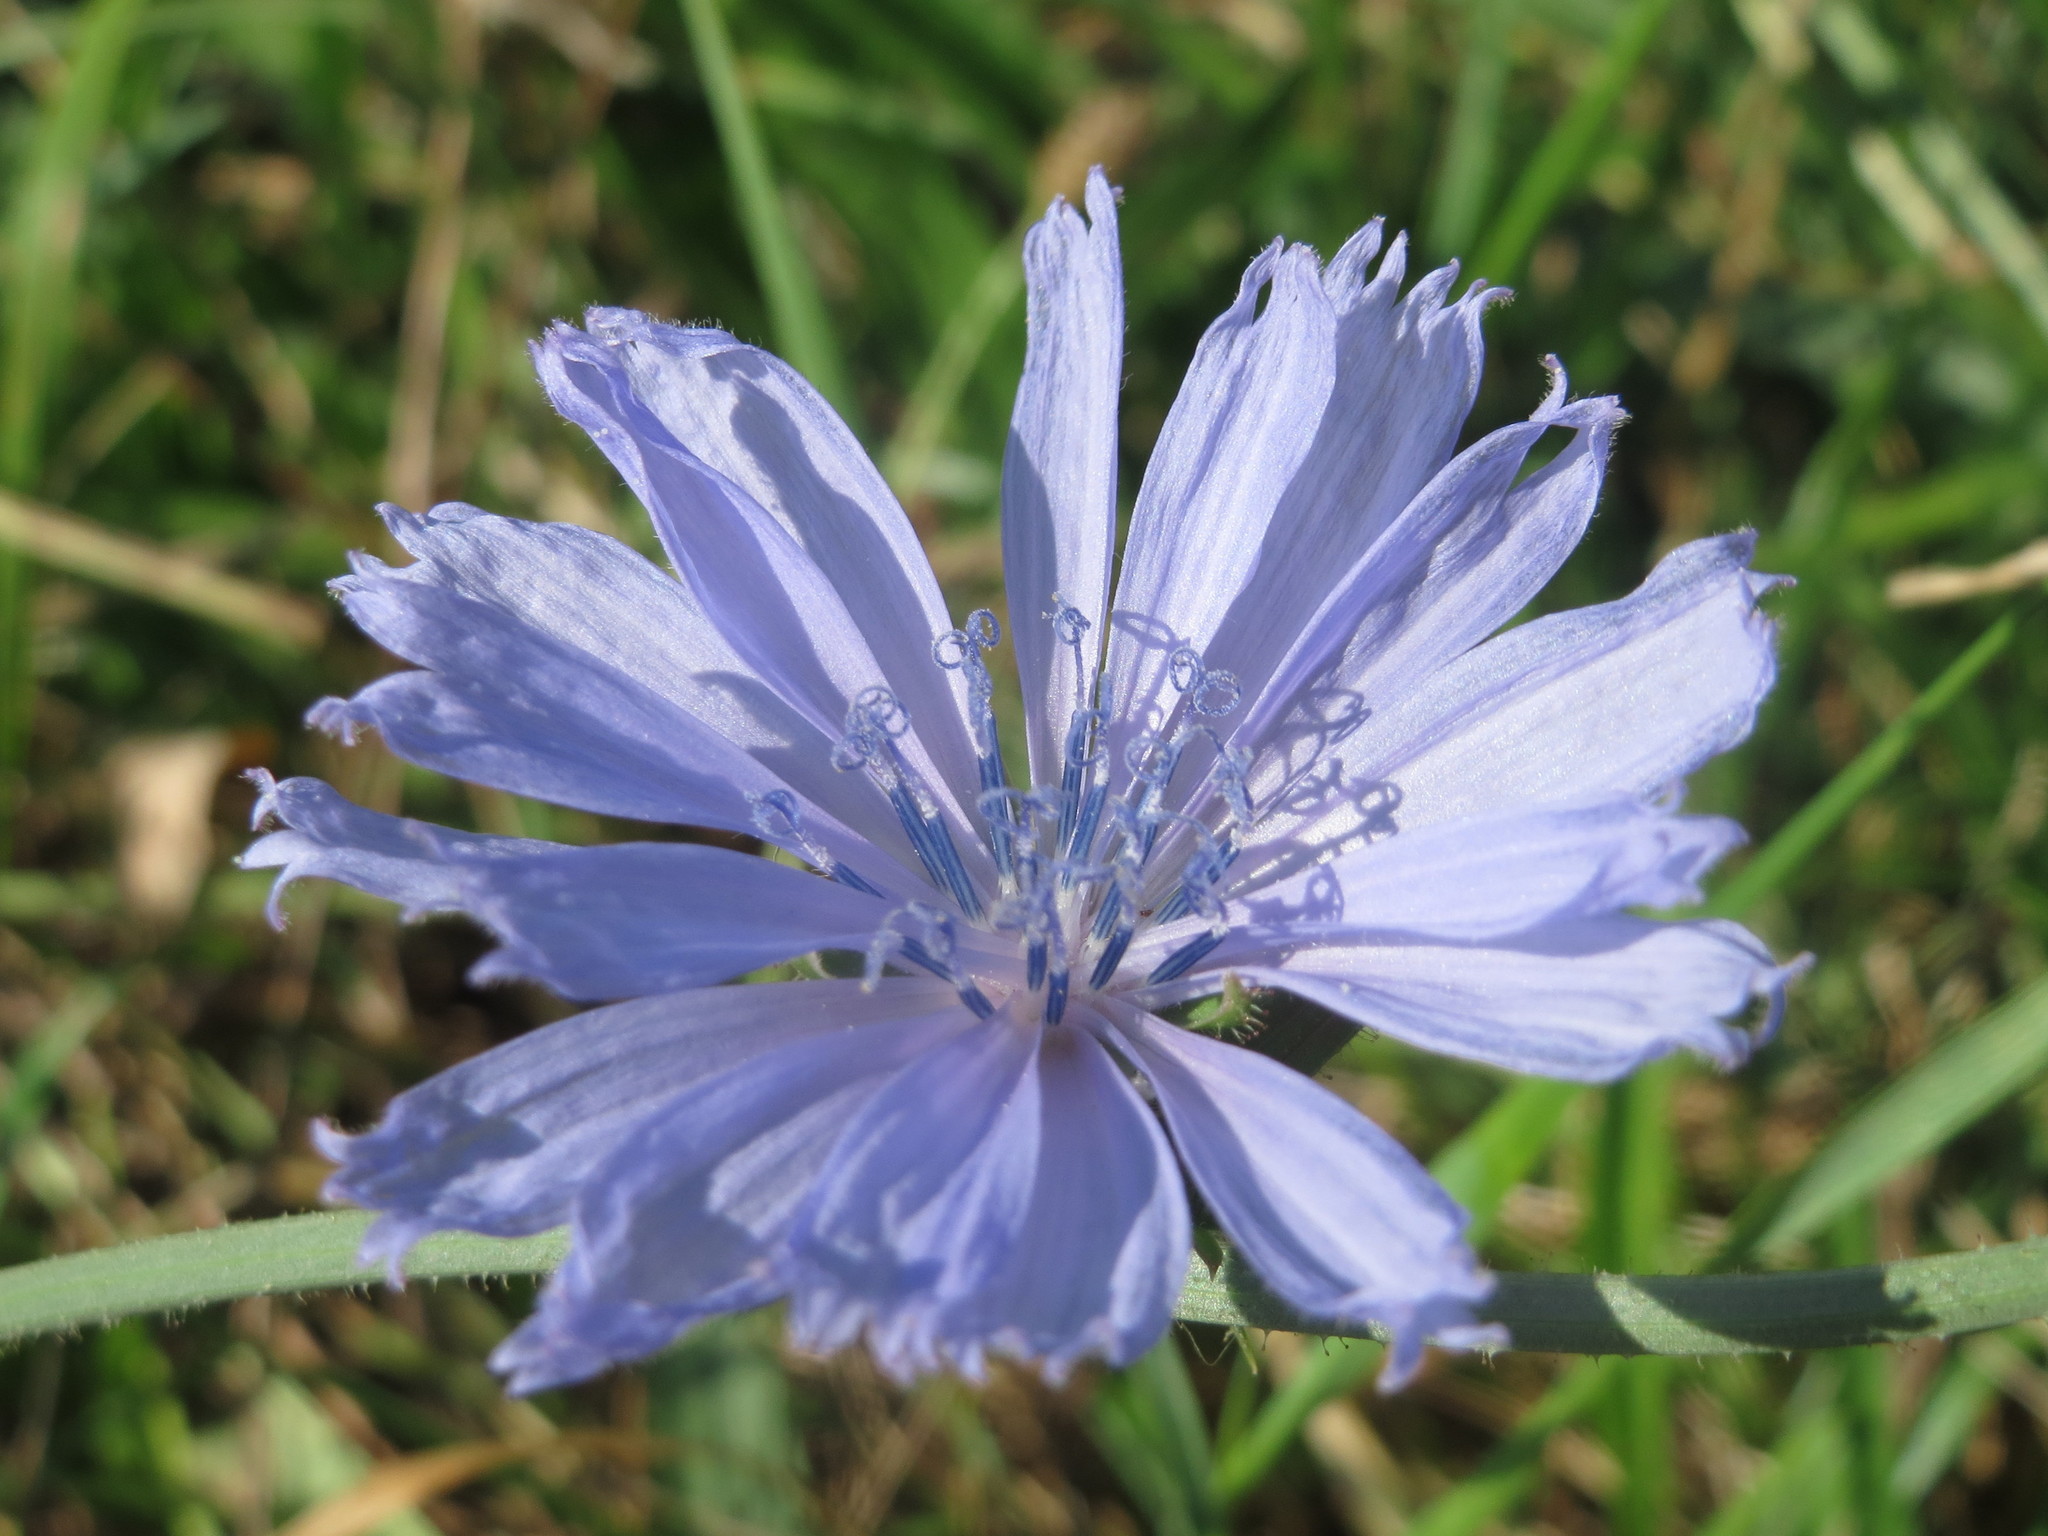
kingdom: Plantae
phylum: Tracheophyta
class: Magnoliopsida
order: Asterales
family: Asteraceae
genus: Cichorium
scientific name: Cichorium intybus
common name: Chicory
